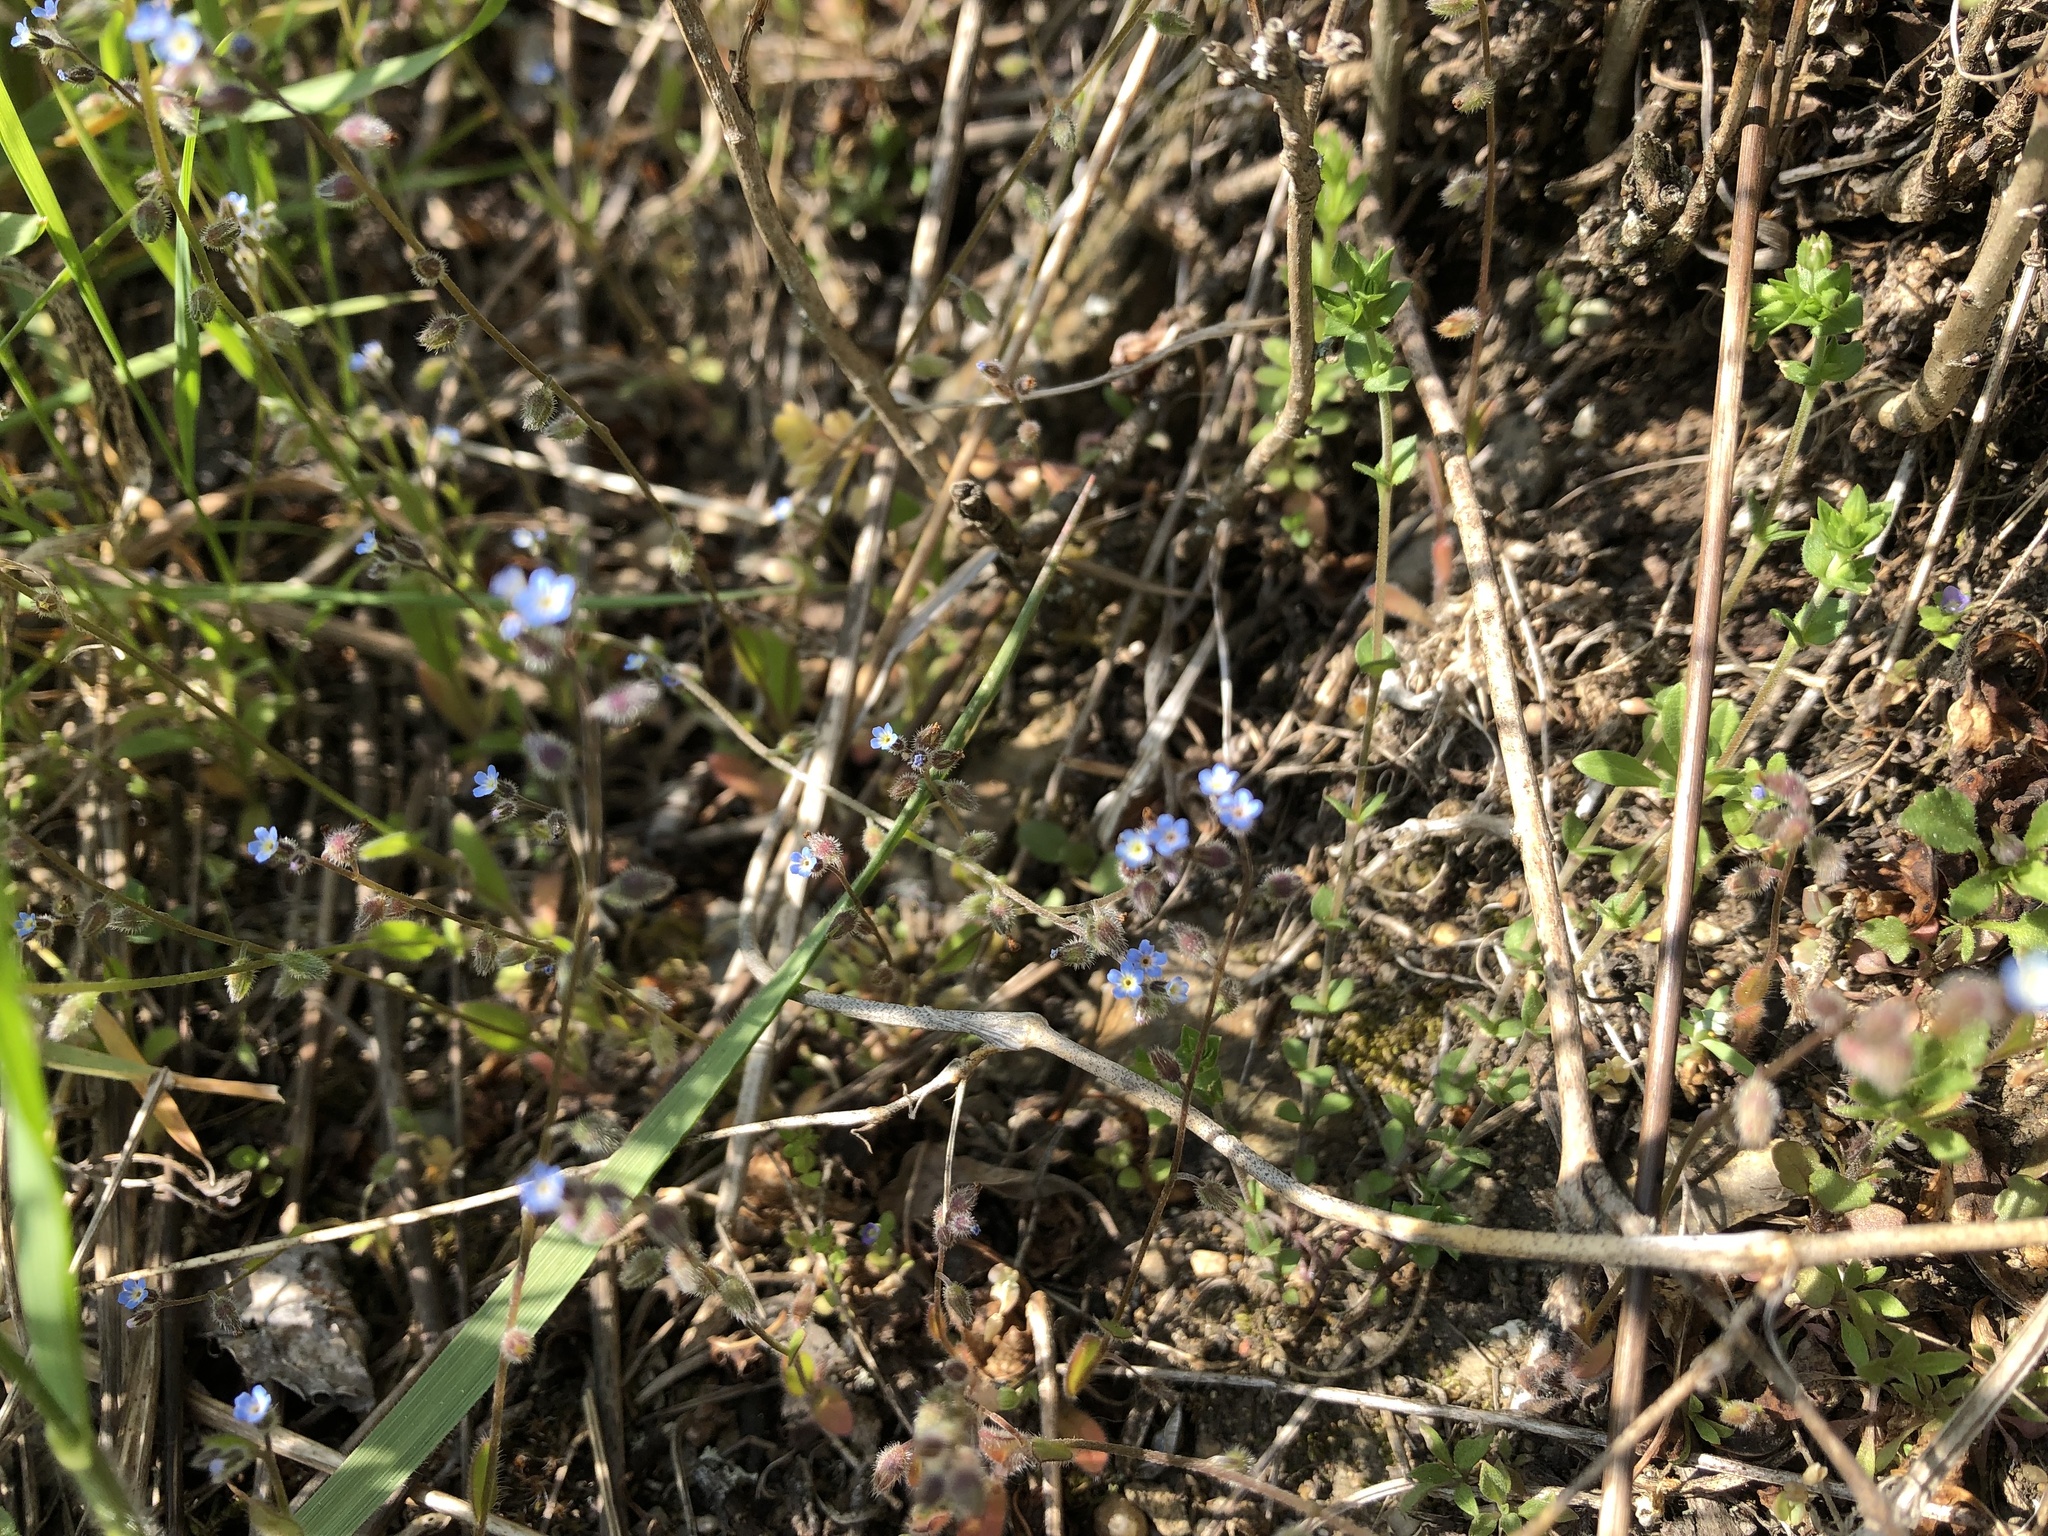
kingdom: Plantae
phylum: Tracheophyta
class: Magnoliopsida
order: Boraginales
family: Boraginaceae
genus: Myosotis
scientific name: Myosotis ramosissima
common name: Early forget-me-not
